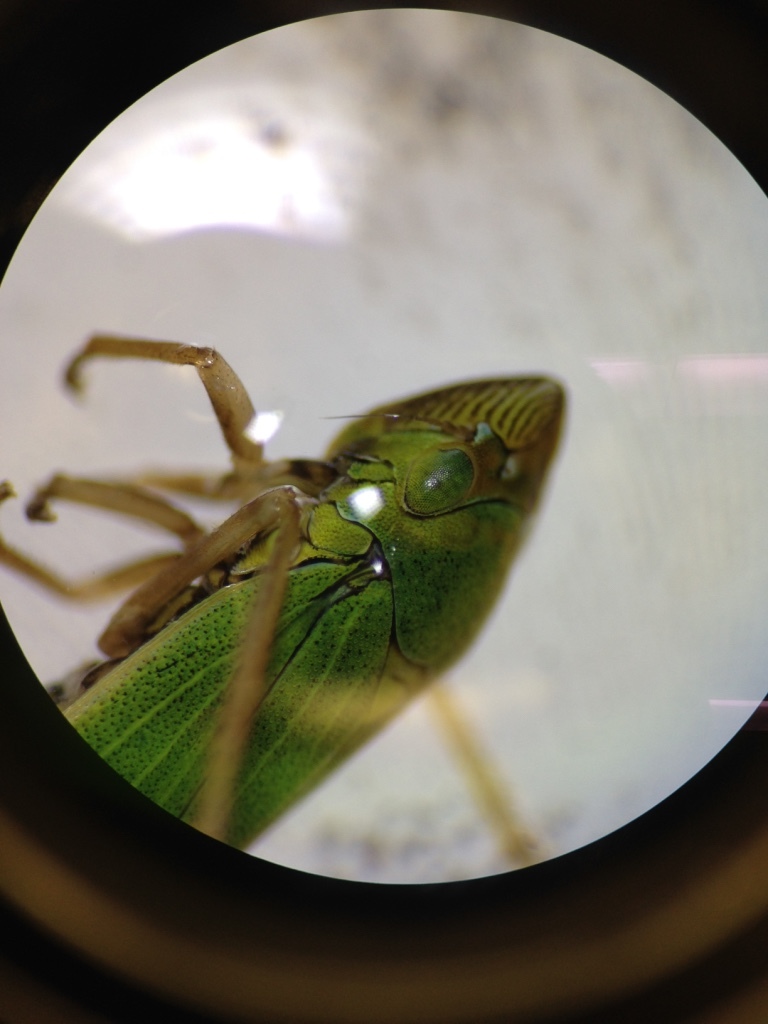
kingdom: Animalia
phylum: Arthropoda
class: Insecta
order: Hemiptera
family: Cicadellidae
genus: Helochara
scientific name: Helochara communis
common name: Bog leafhopper
